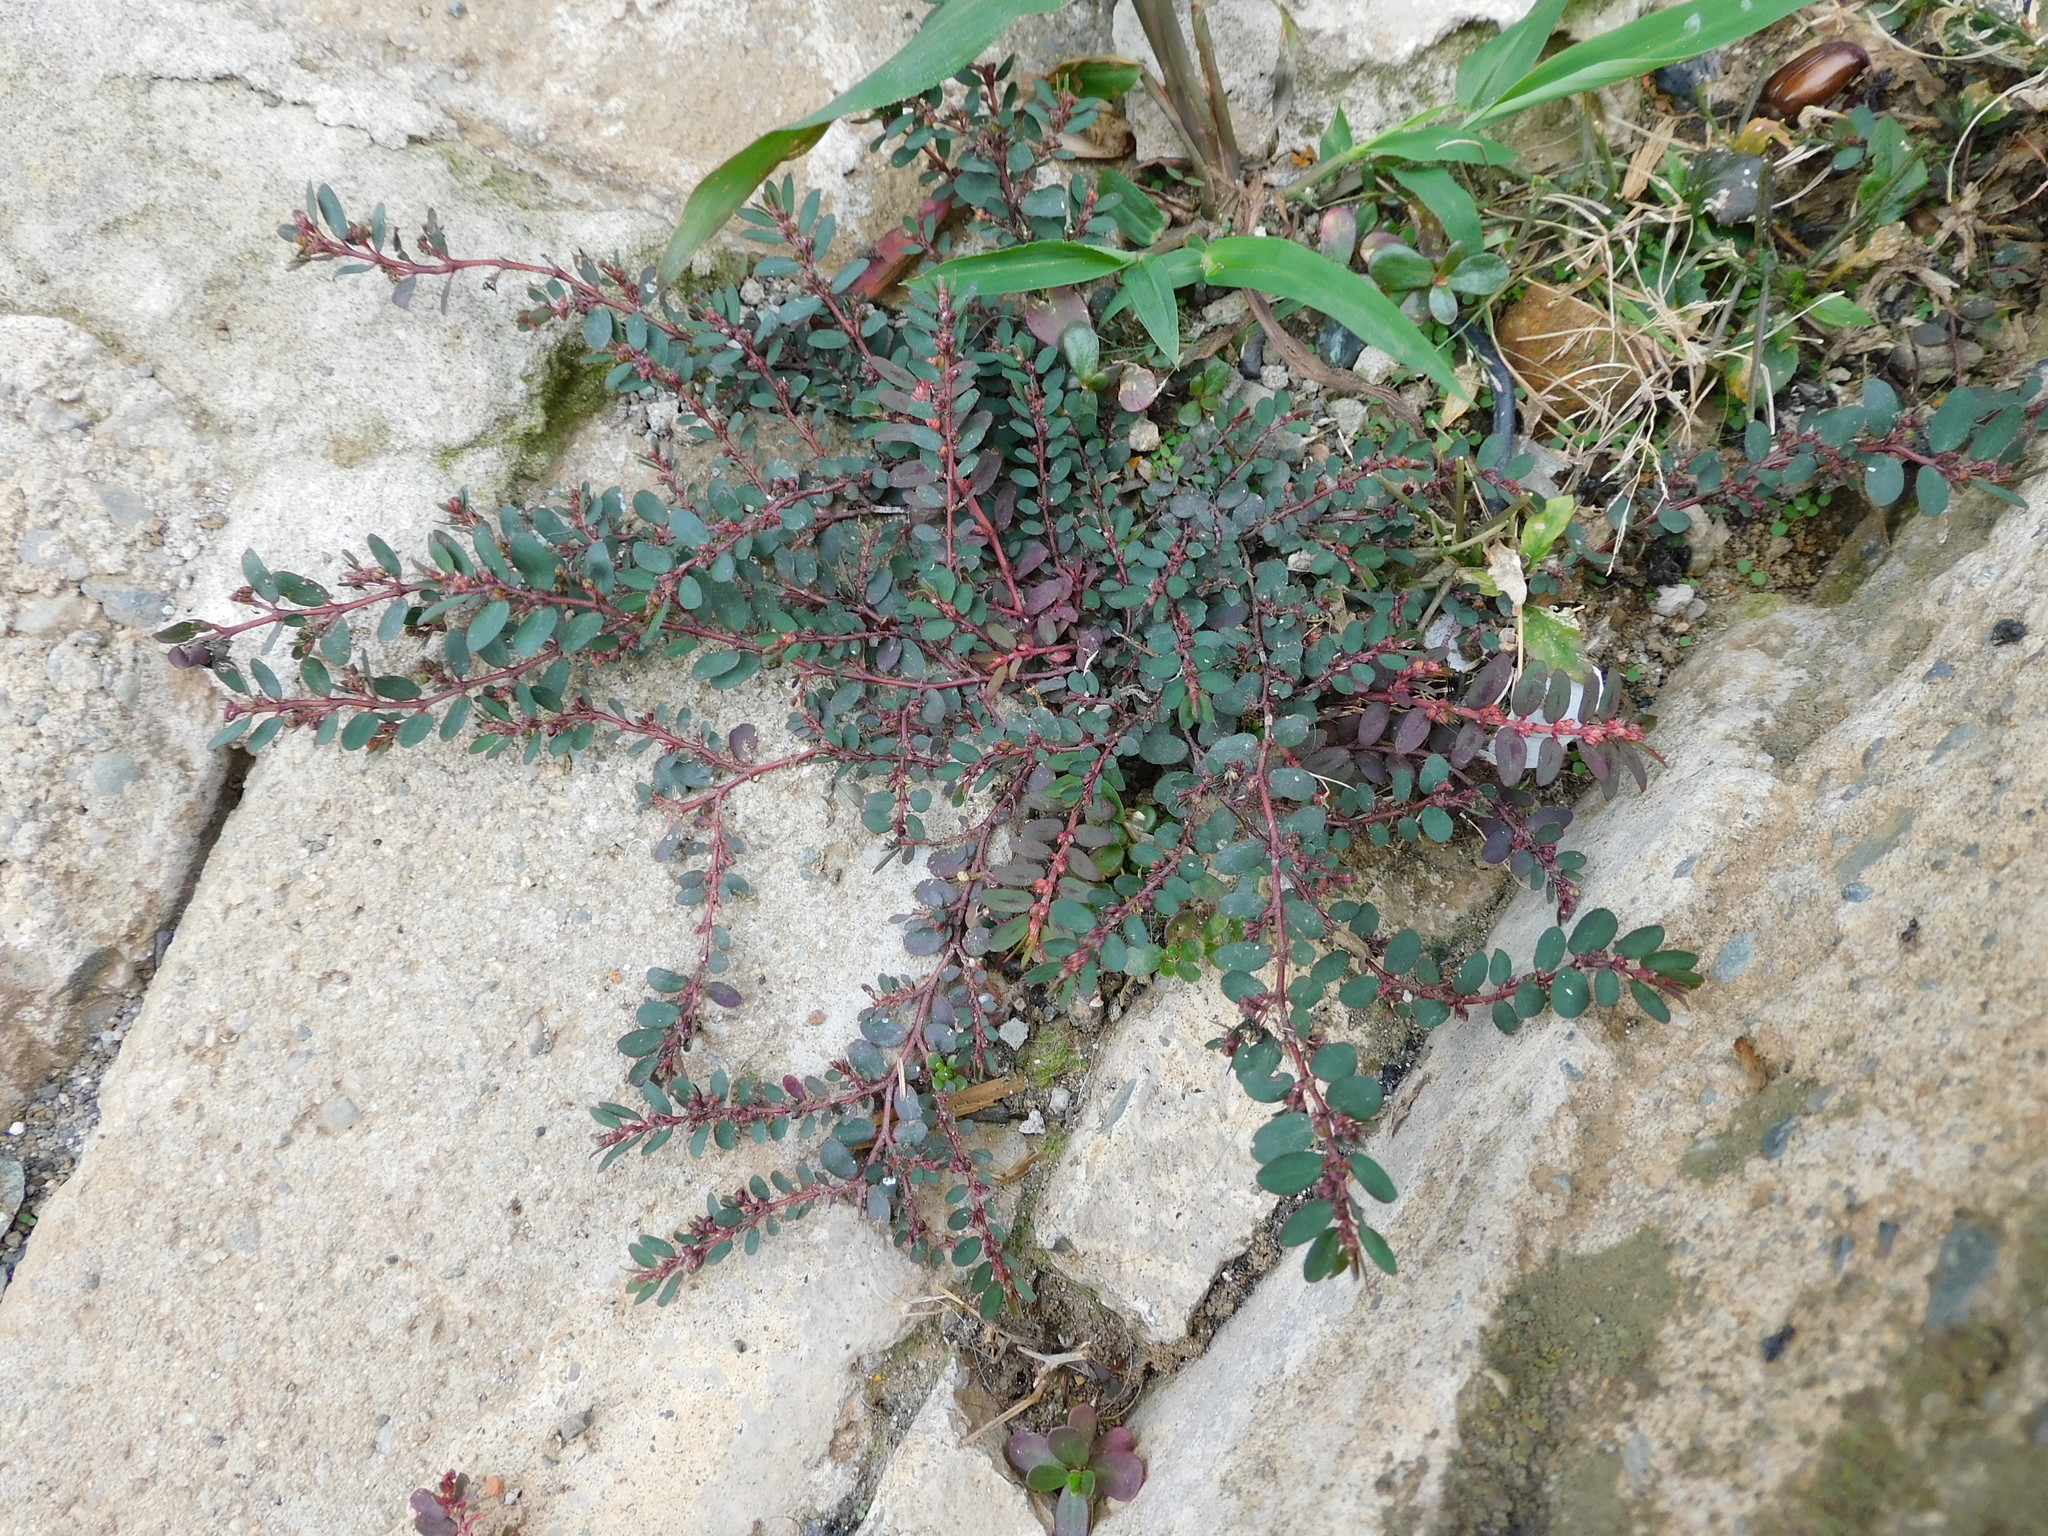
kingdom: Plantae
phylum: Tracheophyta
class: Magnoliopsida
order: Malpighiales
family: Euphorbiaceae
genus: Euphorbia
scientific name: Euphorbia thymifolia
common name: Gulf sandmat
